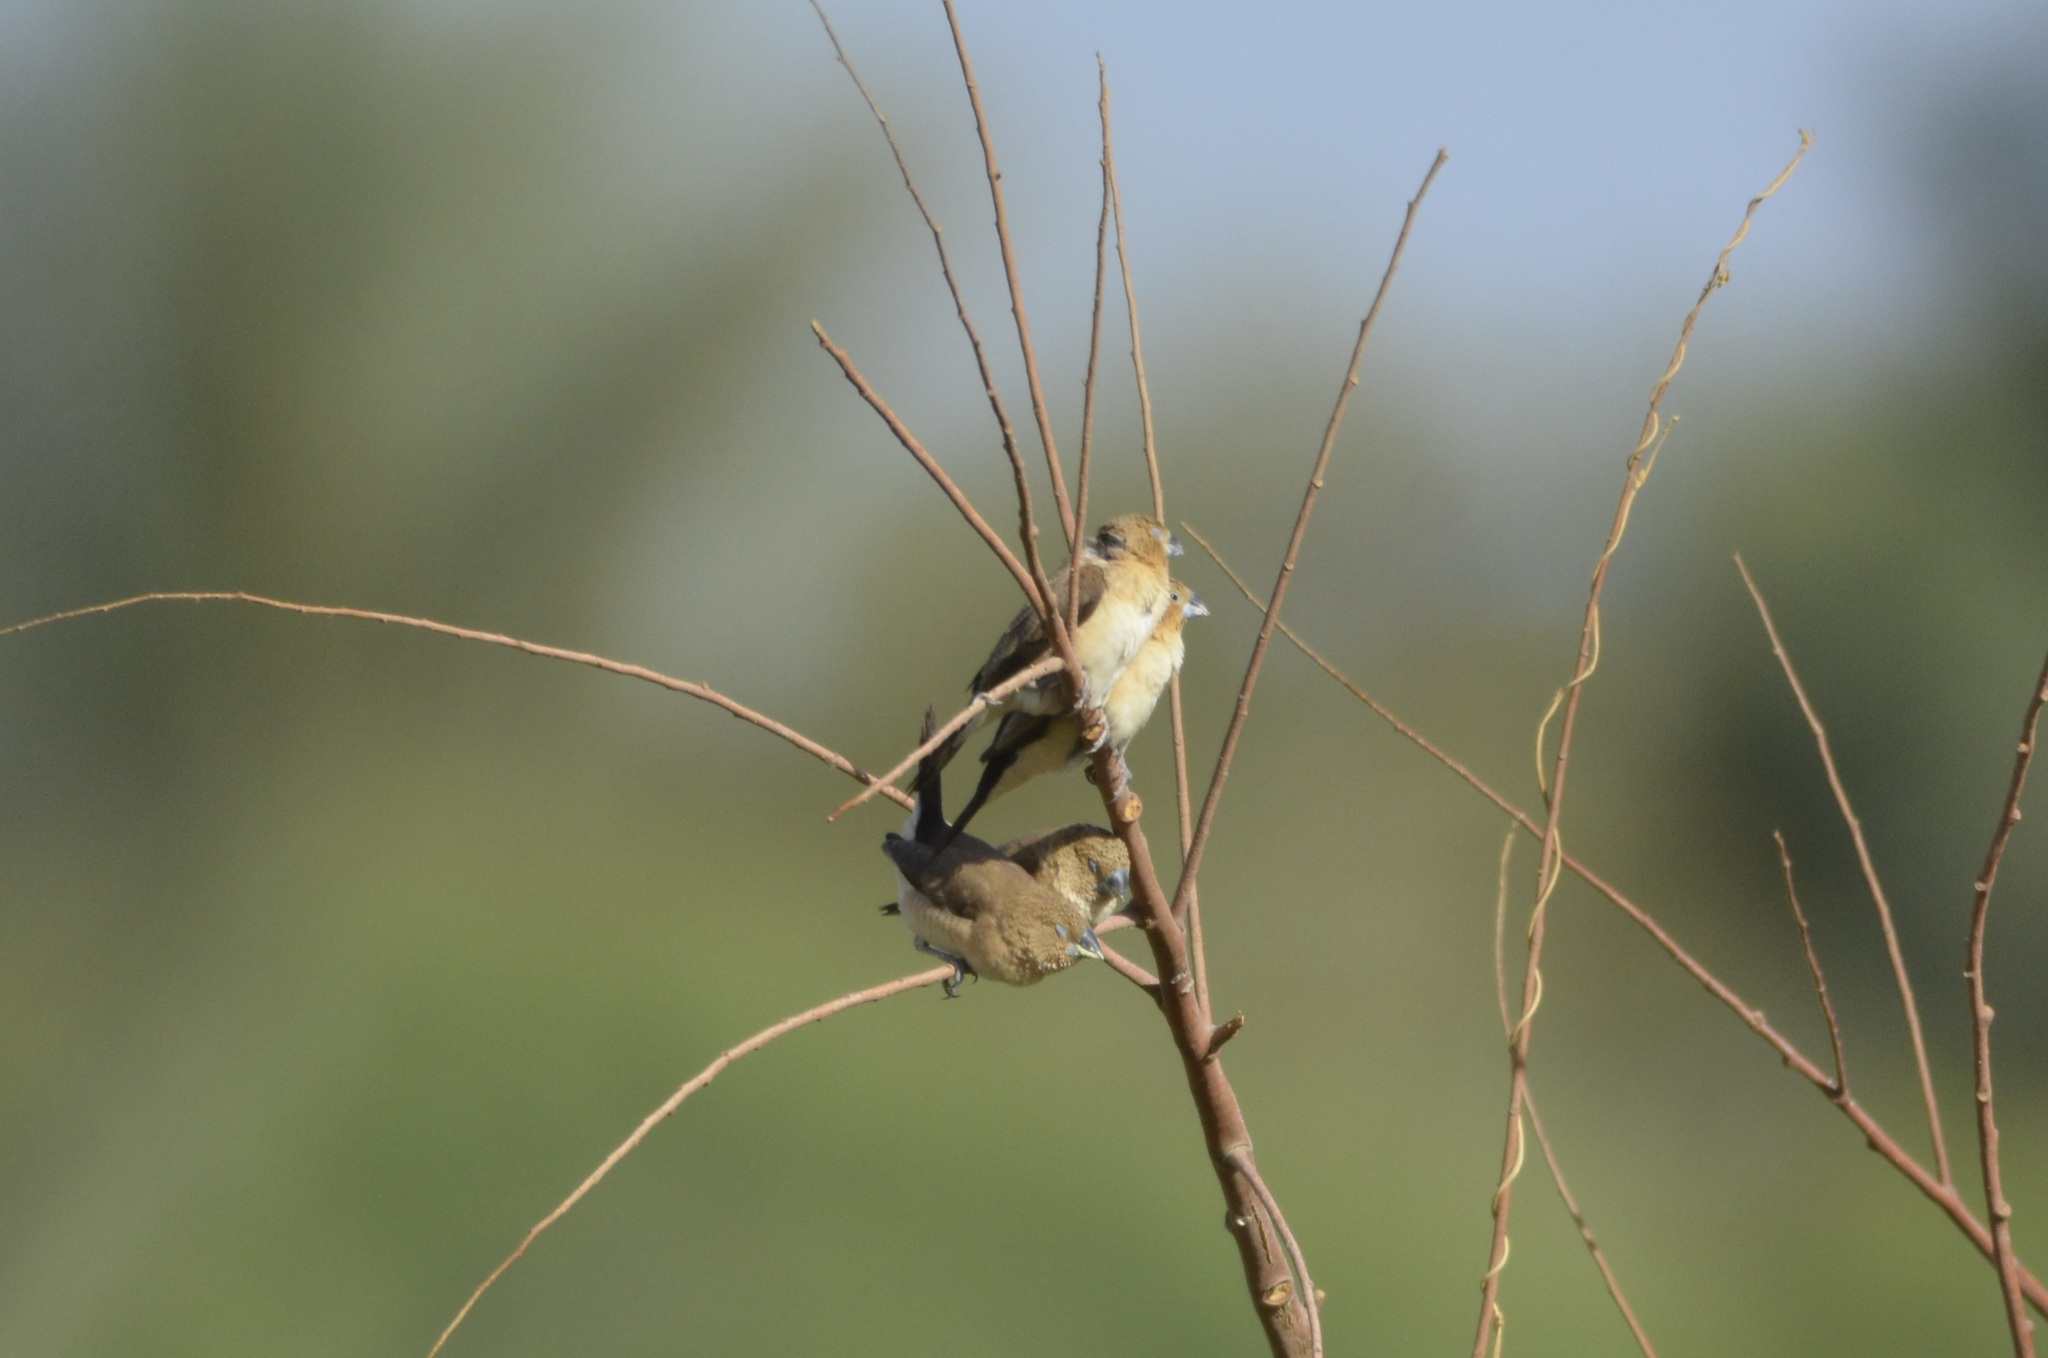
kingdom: Animalia
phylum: Chordata
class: Aves
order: Passeriformes
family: Estrildidae
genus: Euodice
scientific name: Euodice cantans
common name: African silverbill
